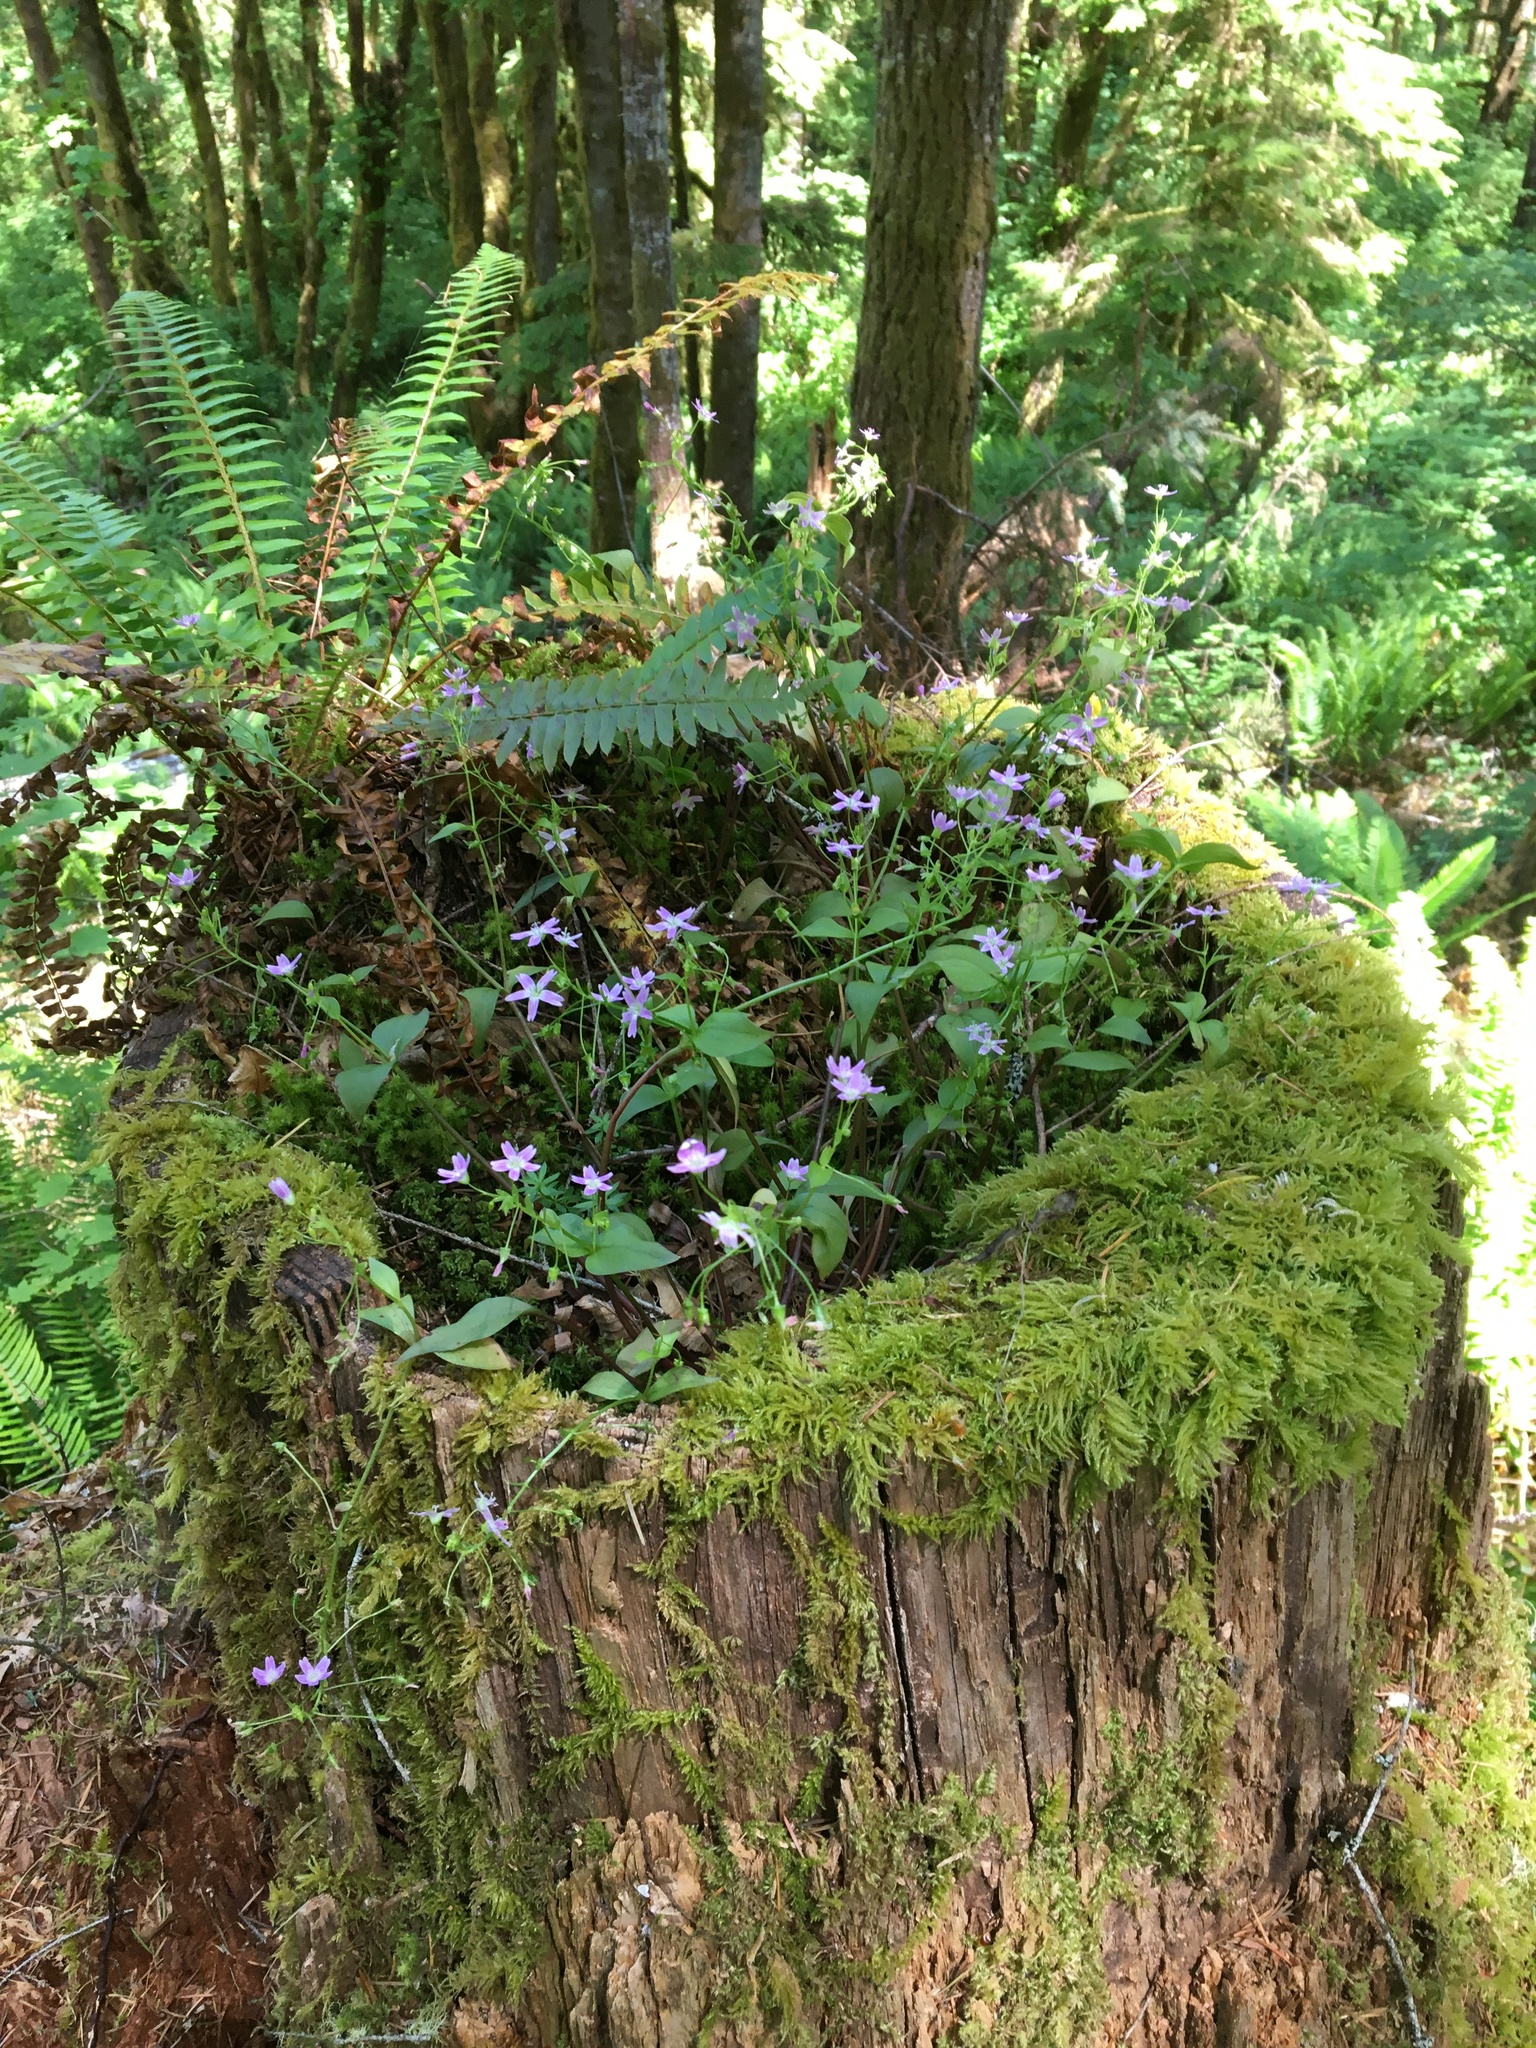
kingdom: Plantae
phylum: Tracheophyta
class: Magnoliopsida
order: Caryophyllales
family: Montiaceae
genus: Claytonia
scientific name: Claytonia sibirica
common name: Pink purslane
